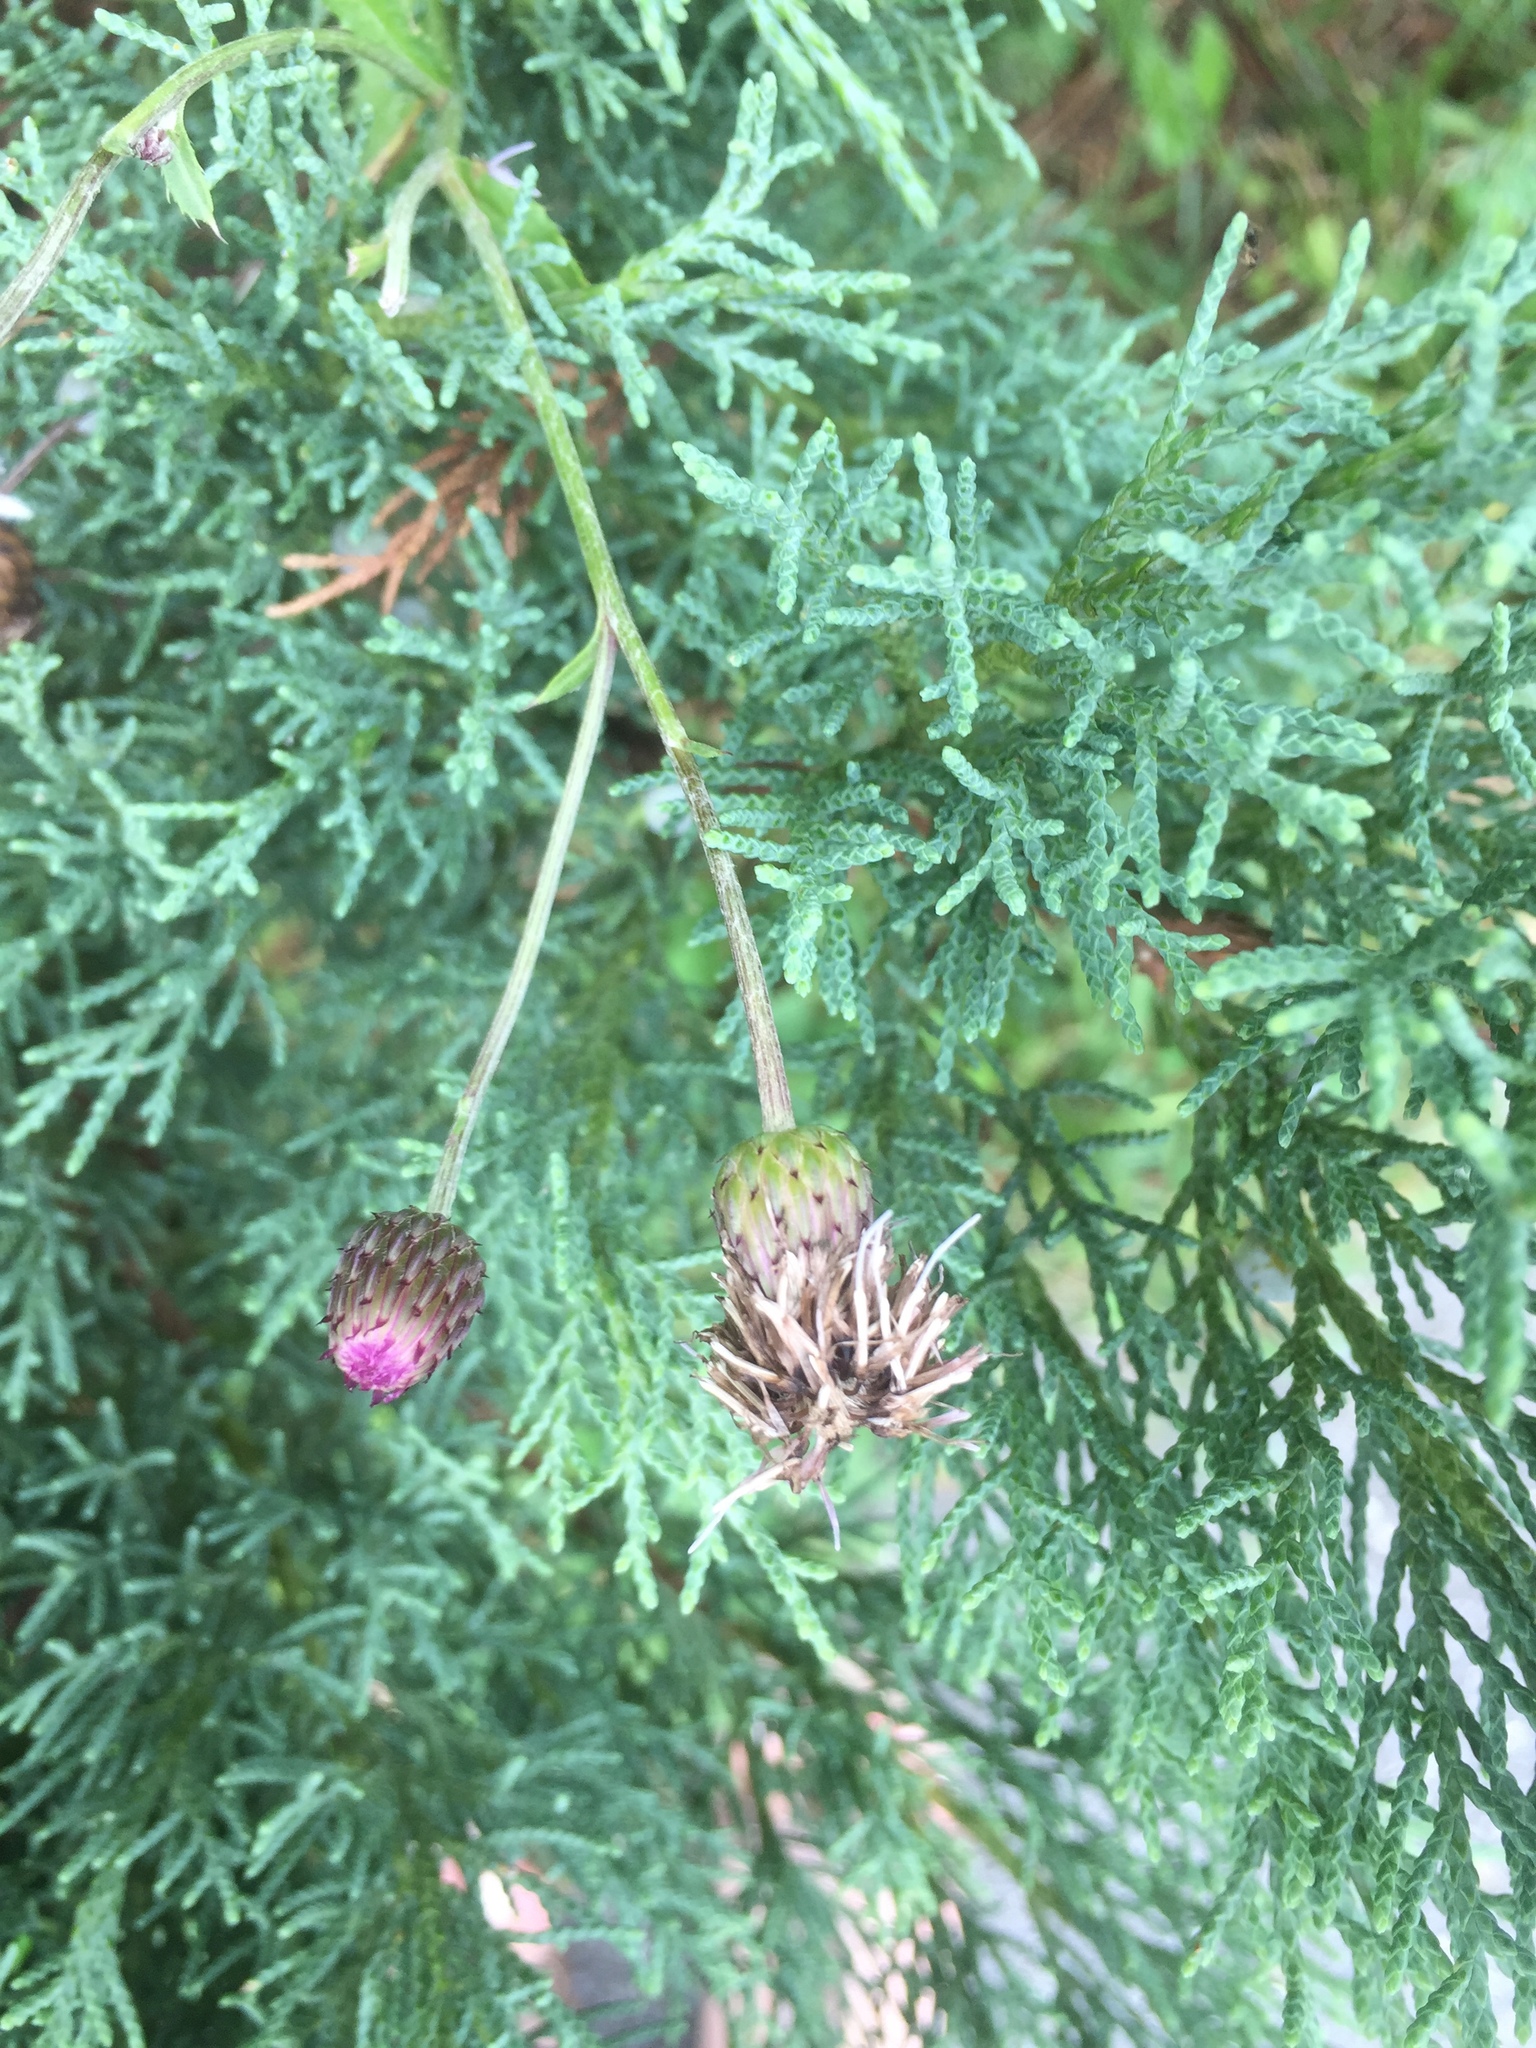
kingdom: Plantae
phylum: Tracheophyta
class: Magnoliopsida
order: Asterales
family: Asteraceae
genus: Cirsium
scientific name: Cirsium arvense
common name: Creeping thistle
